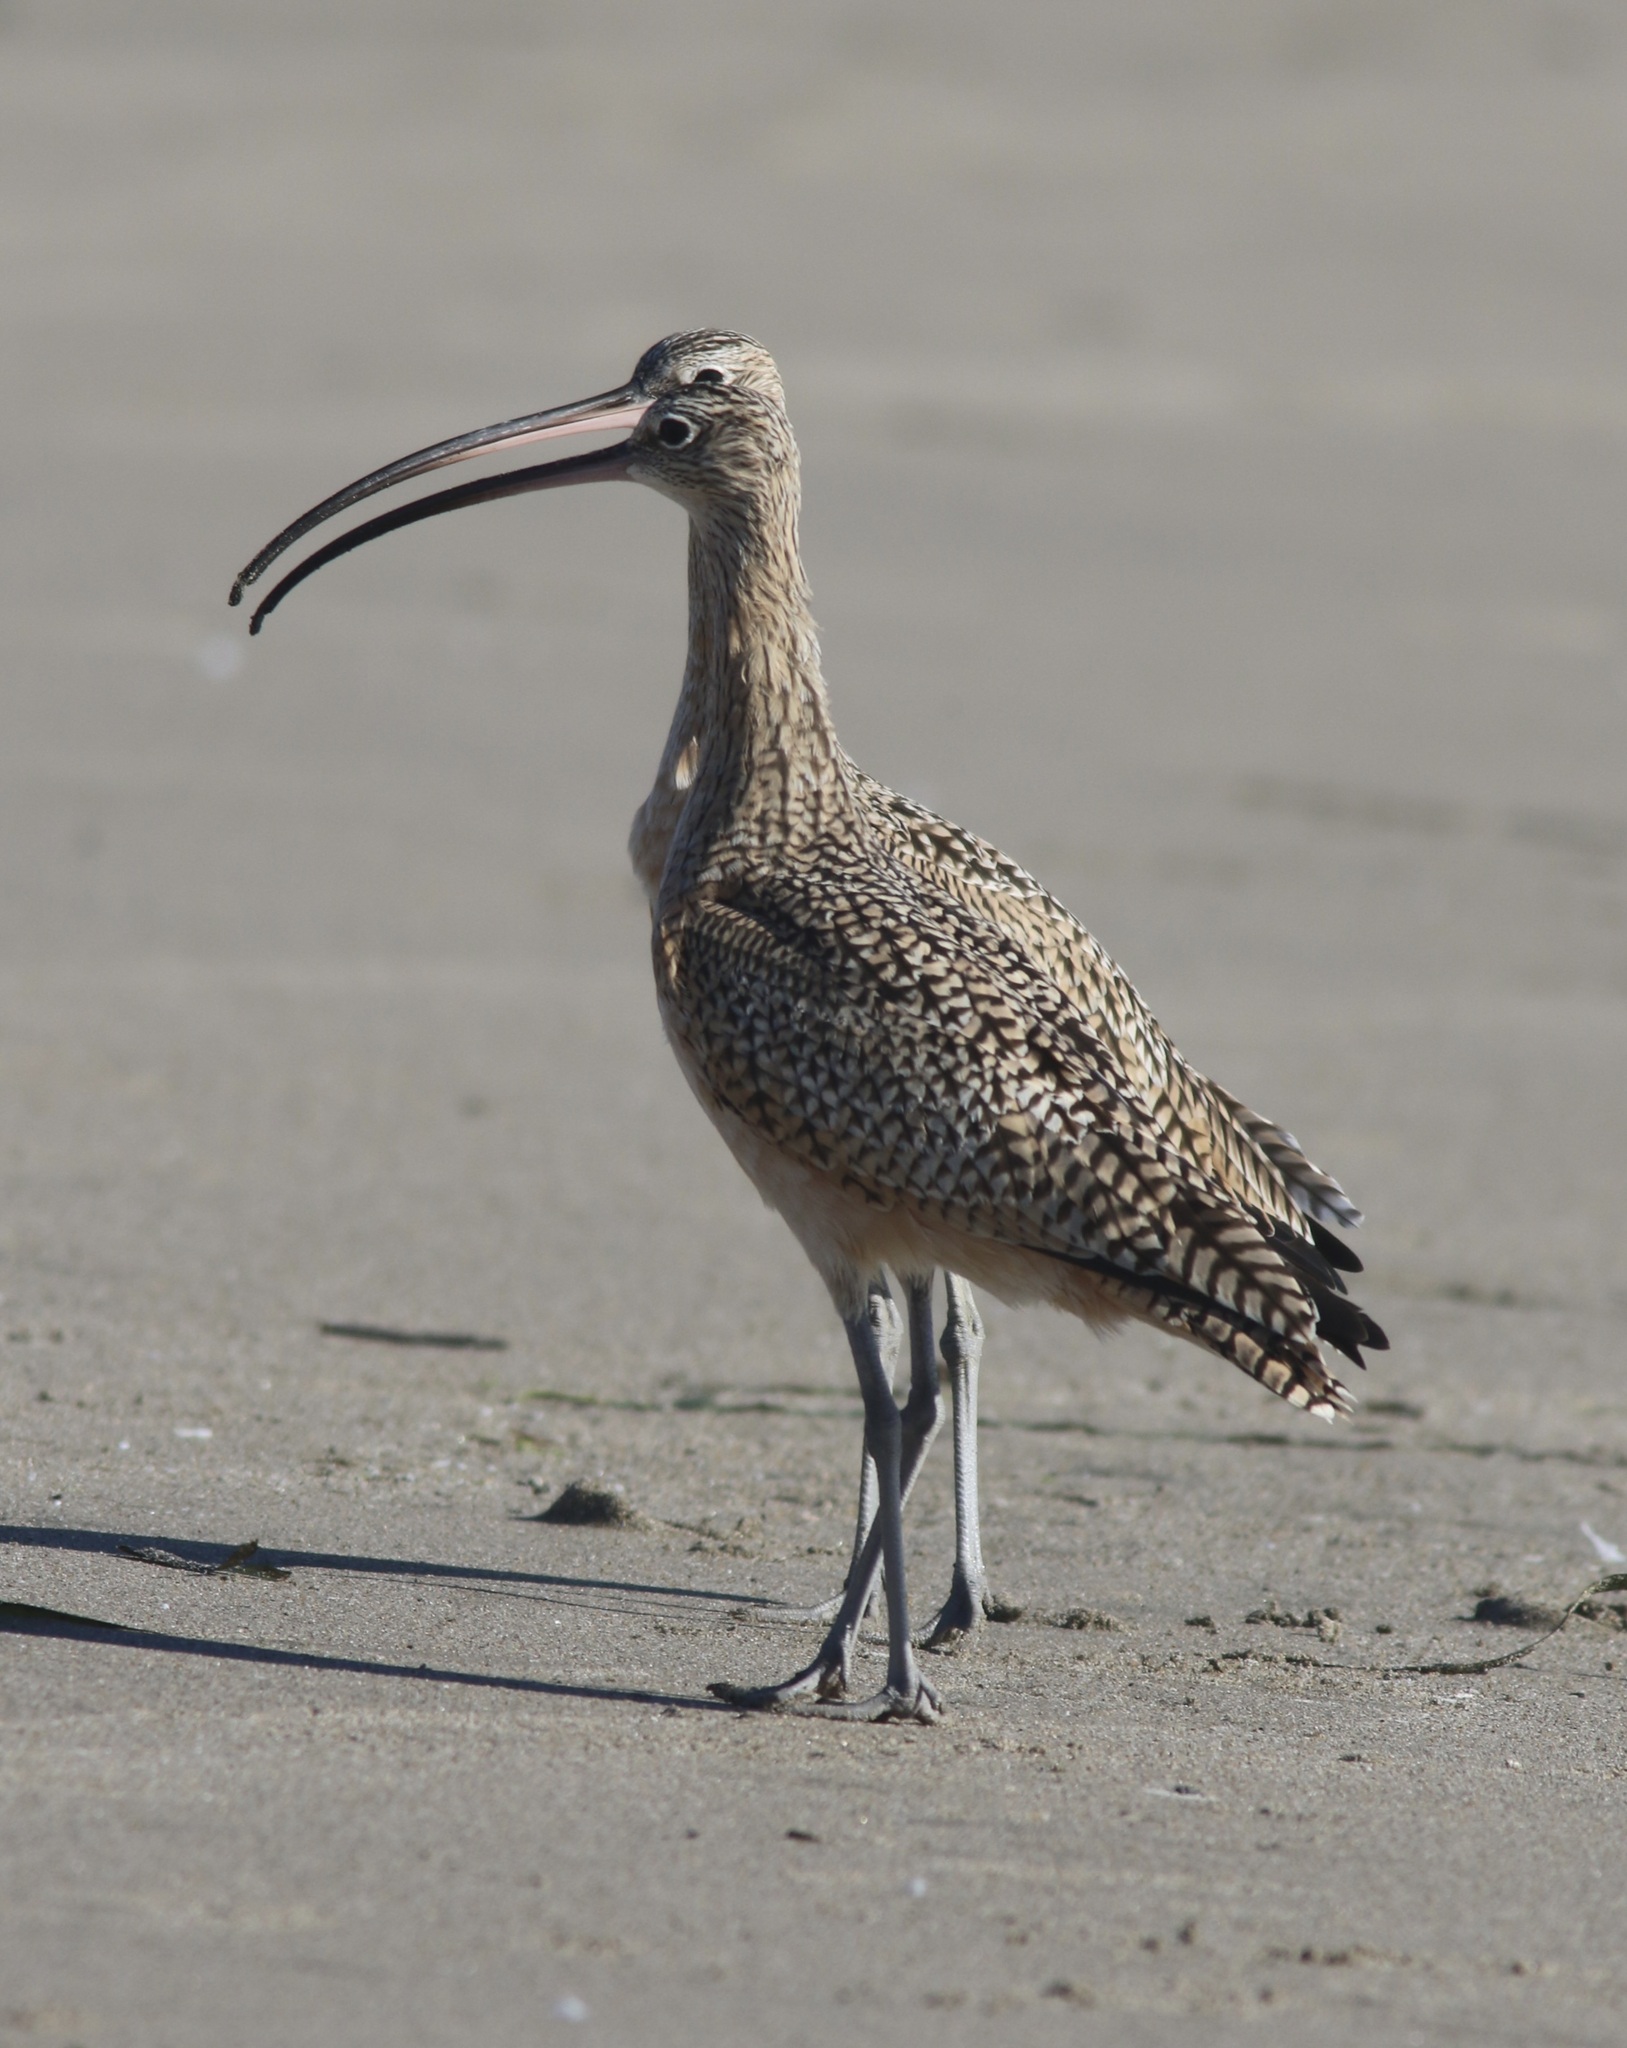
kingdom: Animalia
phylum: Chordata
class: Aves
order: Charadriiformes
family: Scolopacidae
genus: Numenius
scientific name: Numenius americanus
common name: Long-billed curlew
